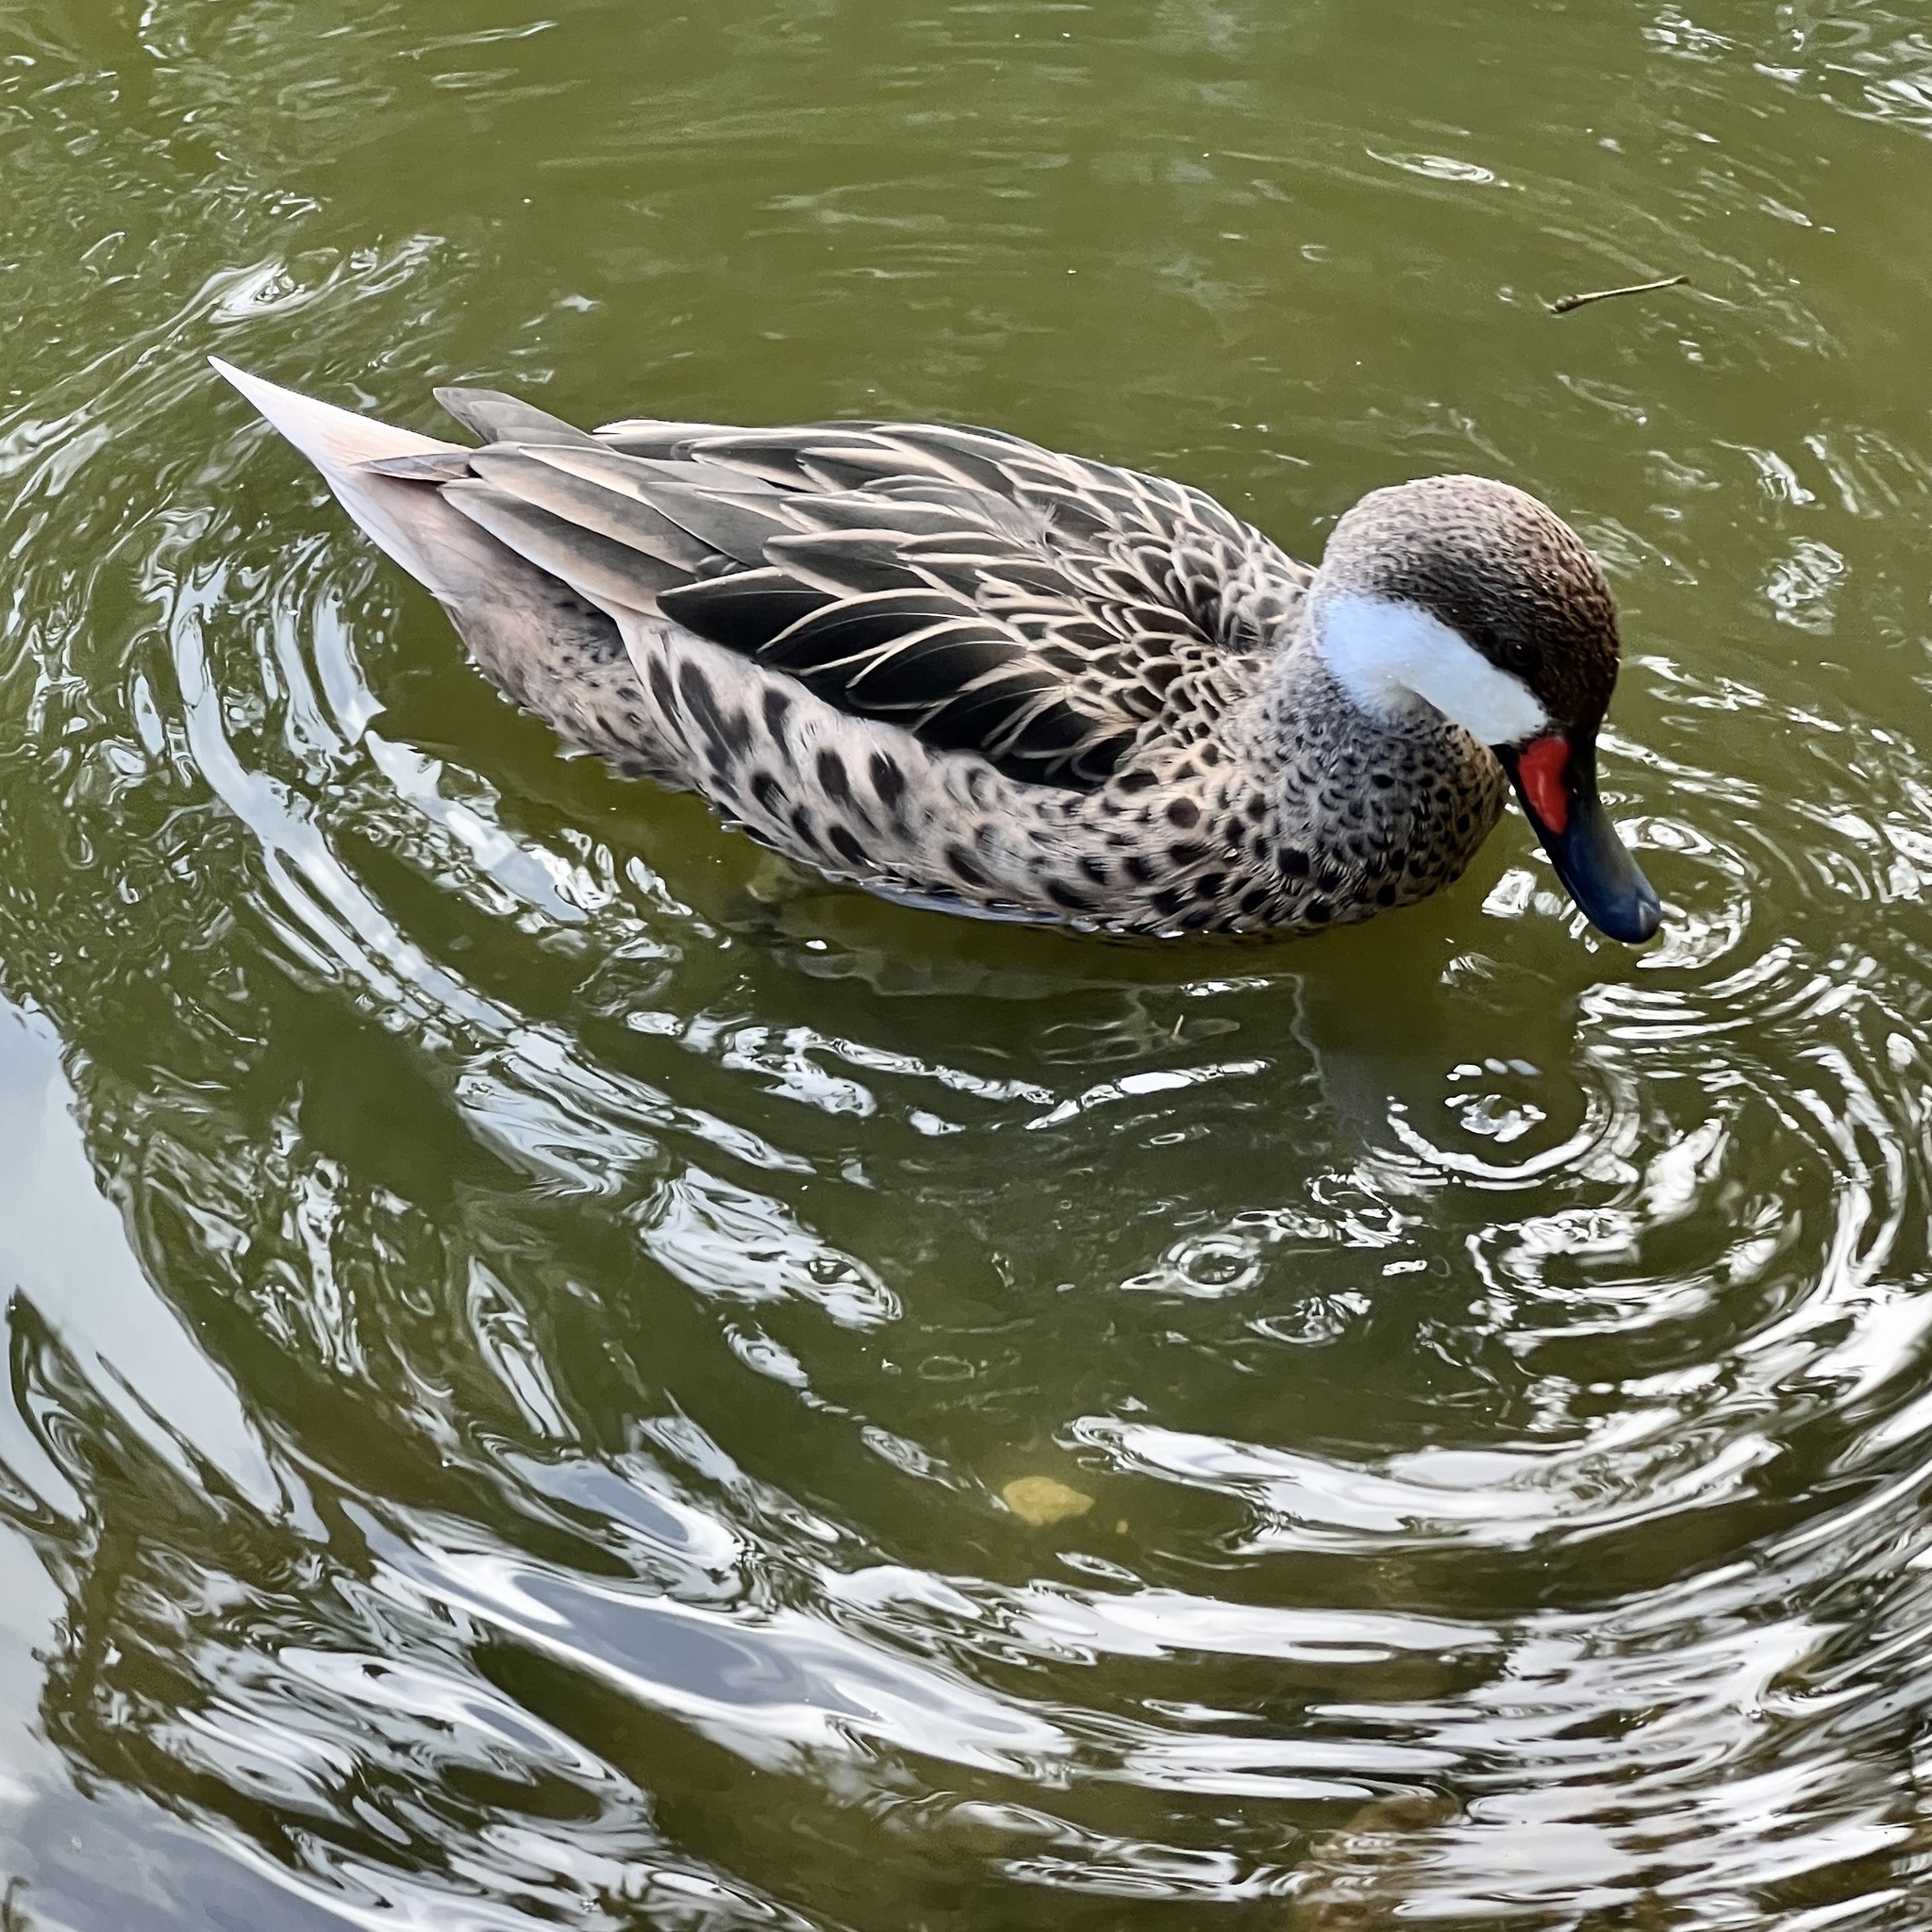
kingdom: Animalia
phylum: Chordata
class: Aves
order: Anseriformes
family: Anatidae
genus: Anas
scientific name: Anas bahamensis
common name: White-cheeked pintail
